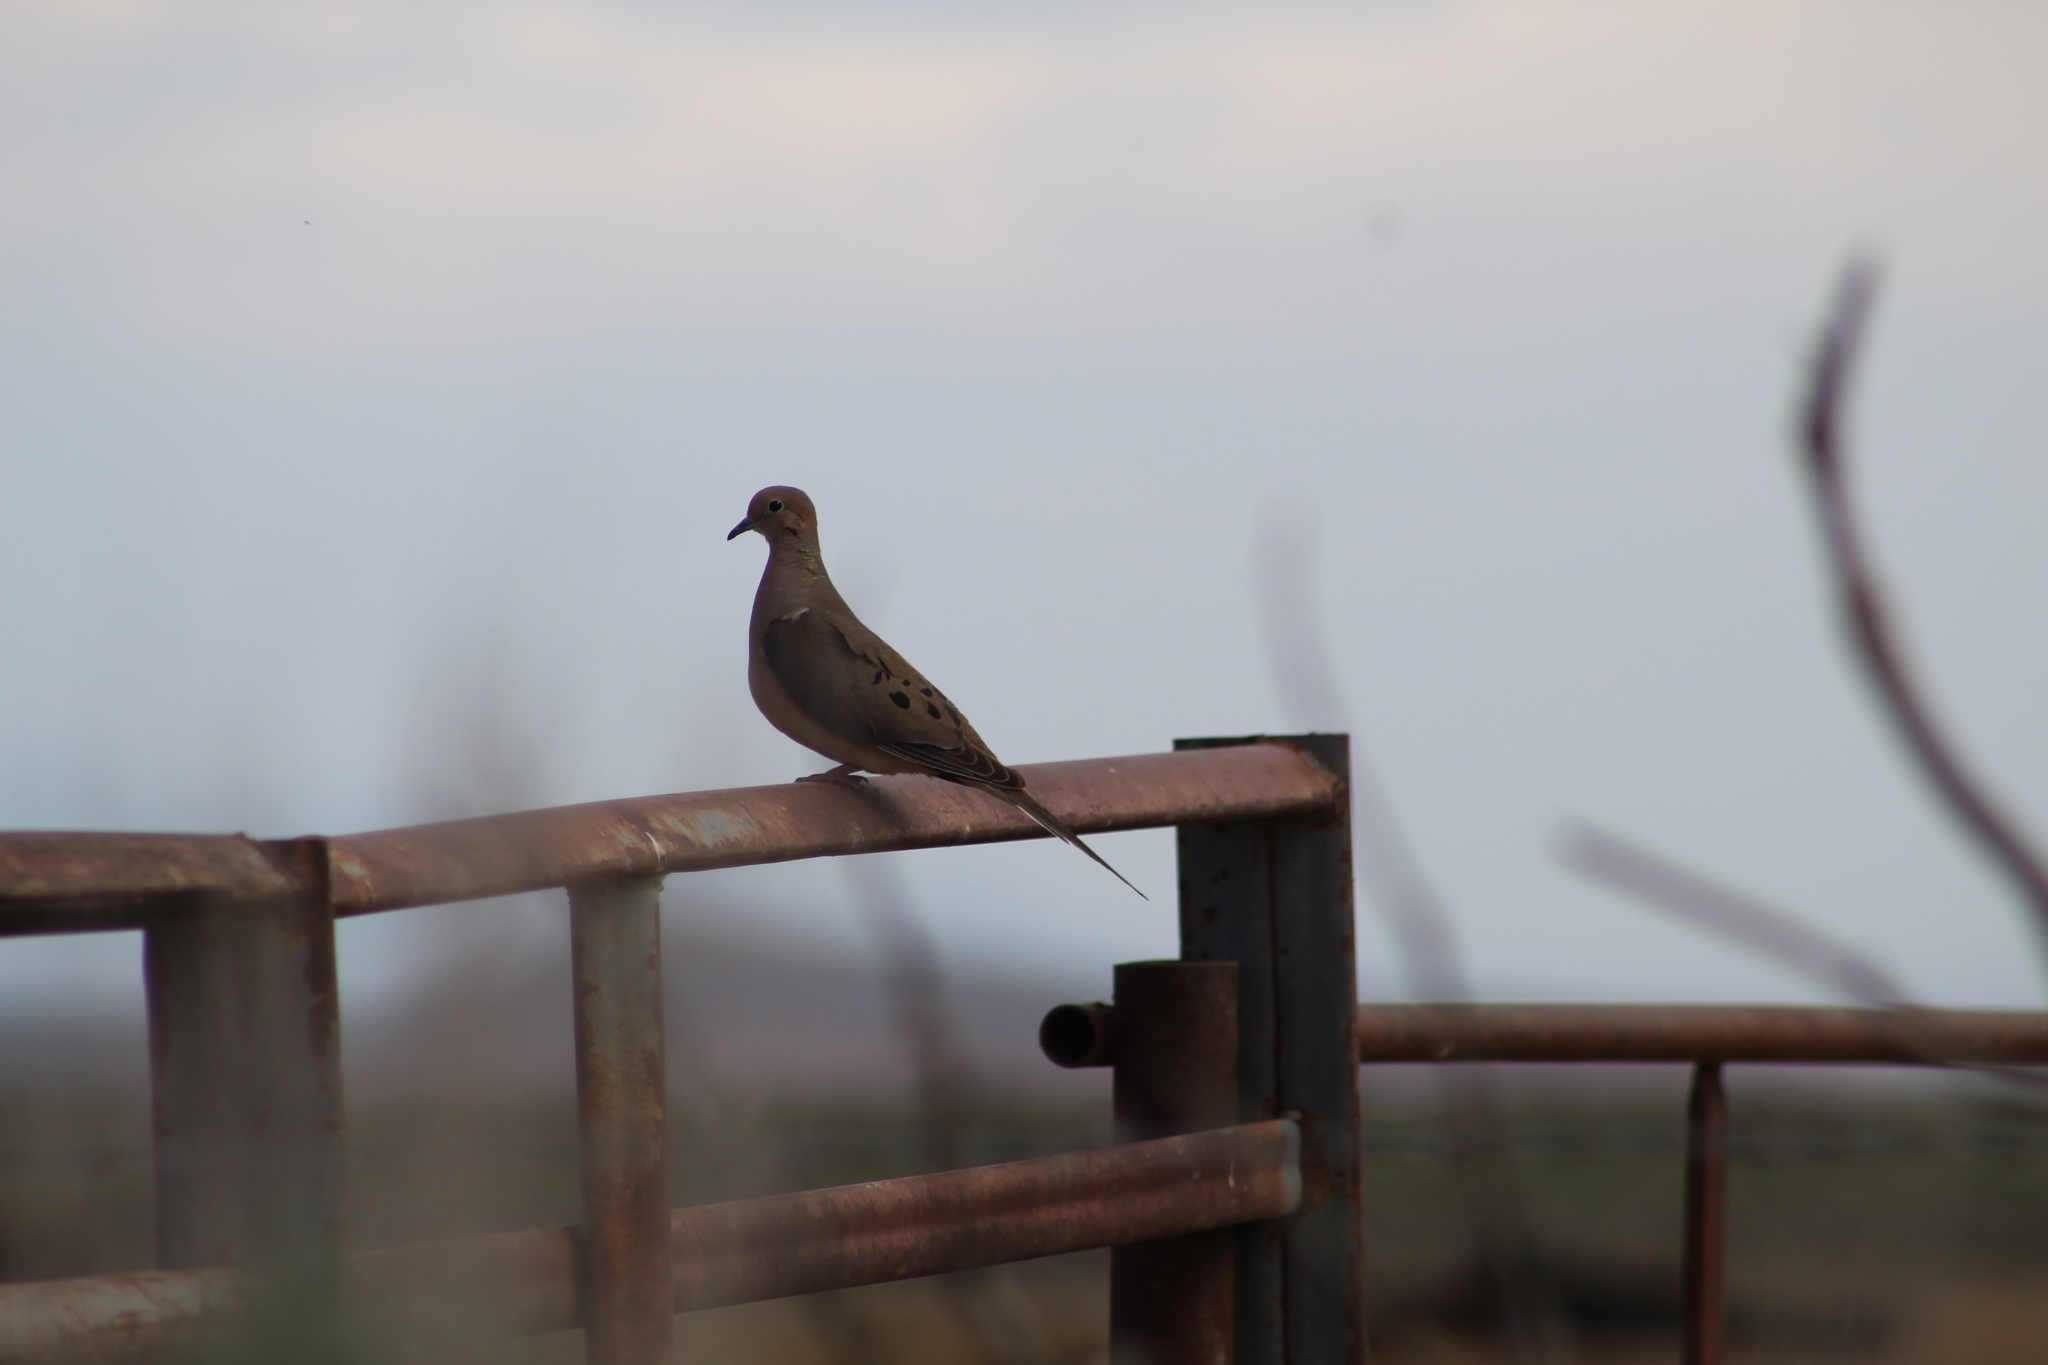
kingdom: Animalia
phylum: Chordata
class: Aves
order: Columbiformes
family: Columbidae
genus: Zenaida
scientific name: Zenaida macroura
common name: Mourning dove
